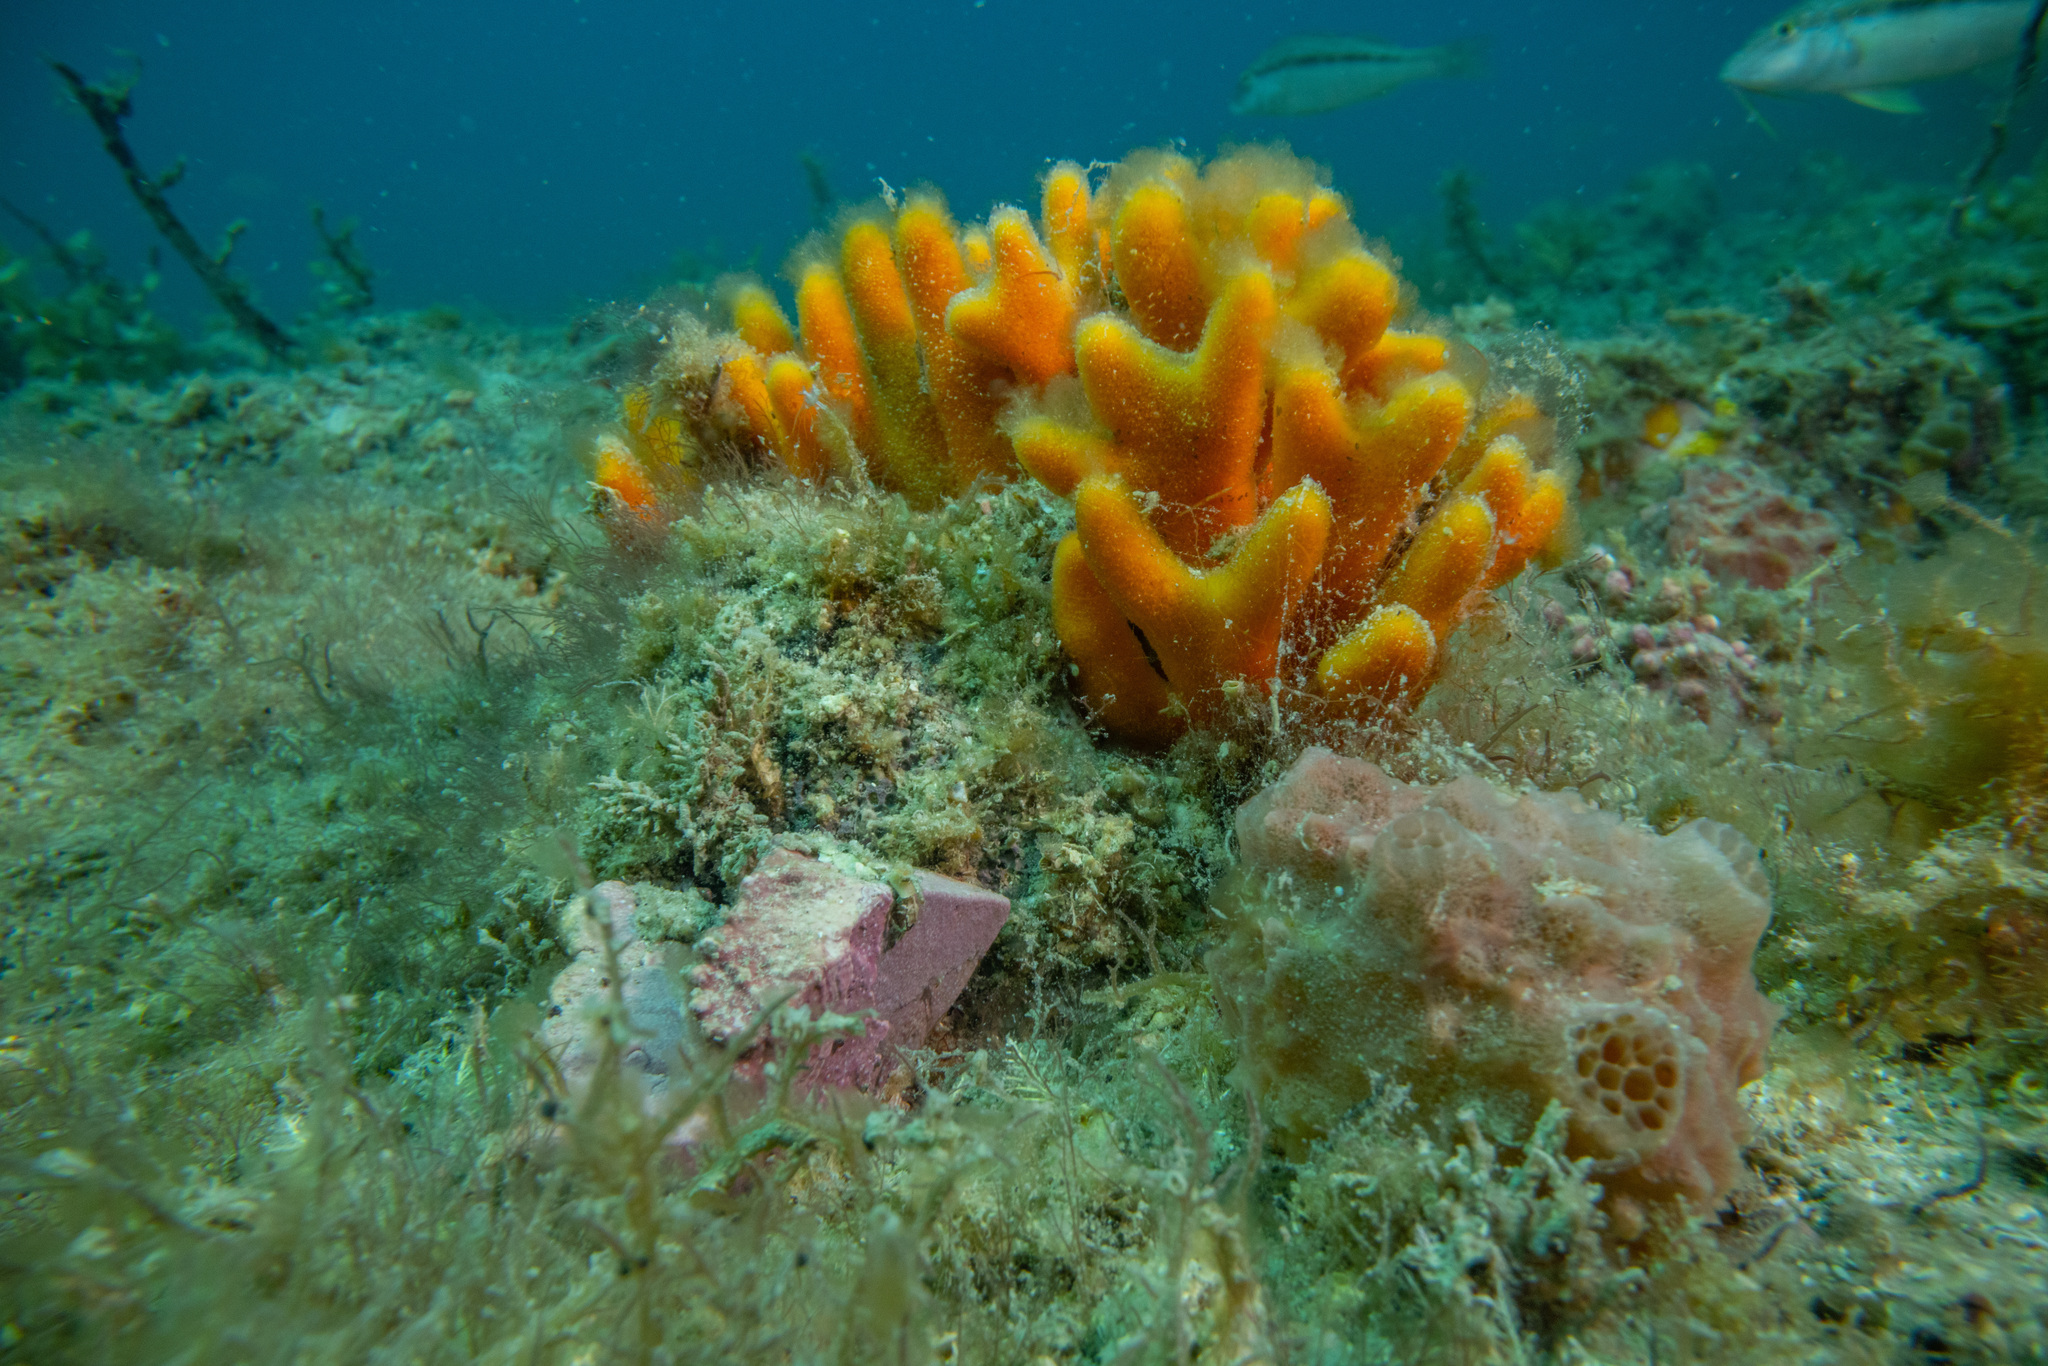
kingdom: Animalia
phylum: Porifera
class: Demospongiae
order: Axinellida
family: Raspailiidae
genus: Raspailia
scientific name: Raspailia topsenti
